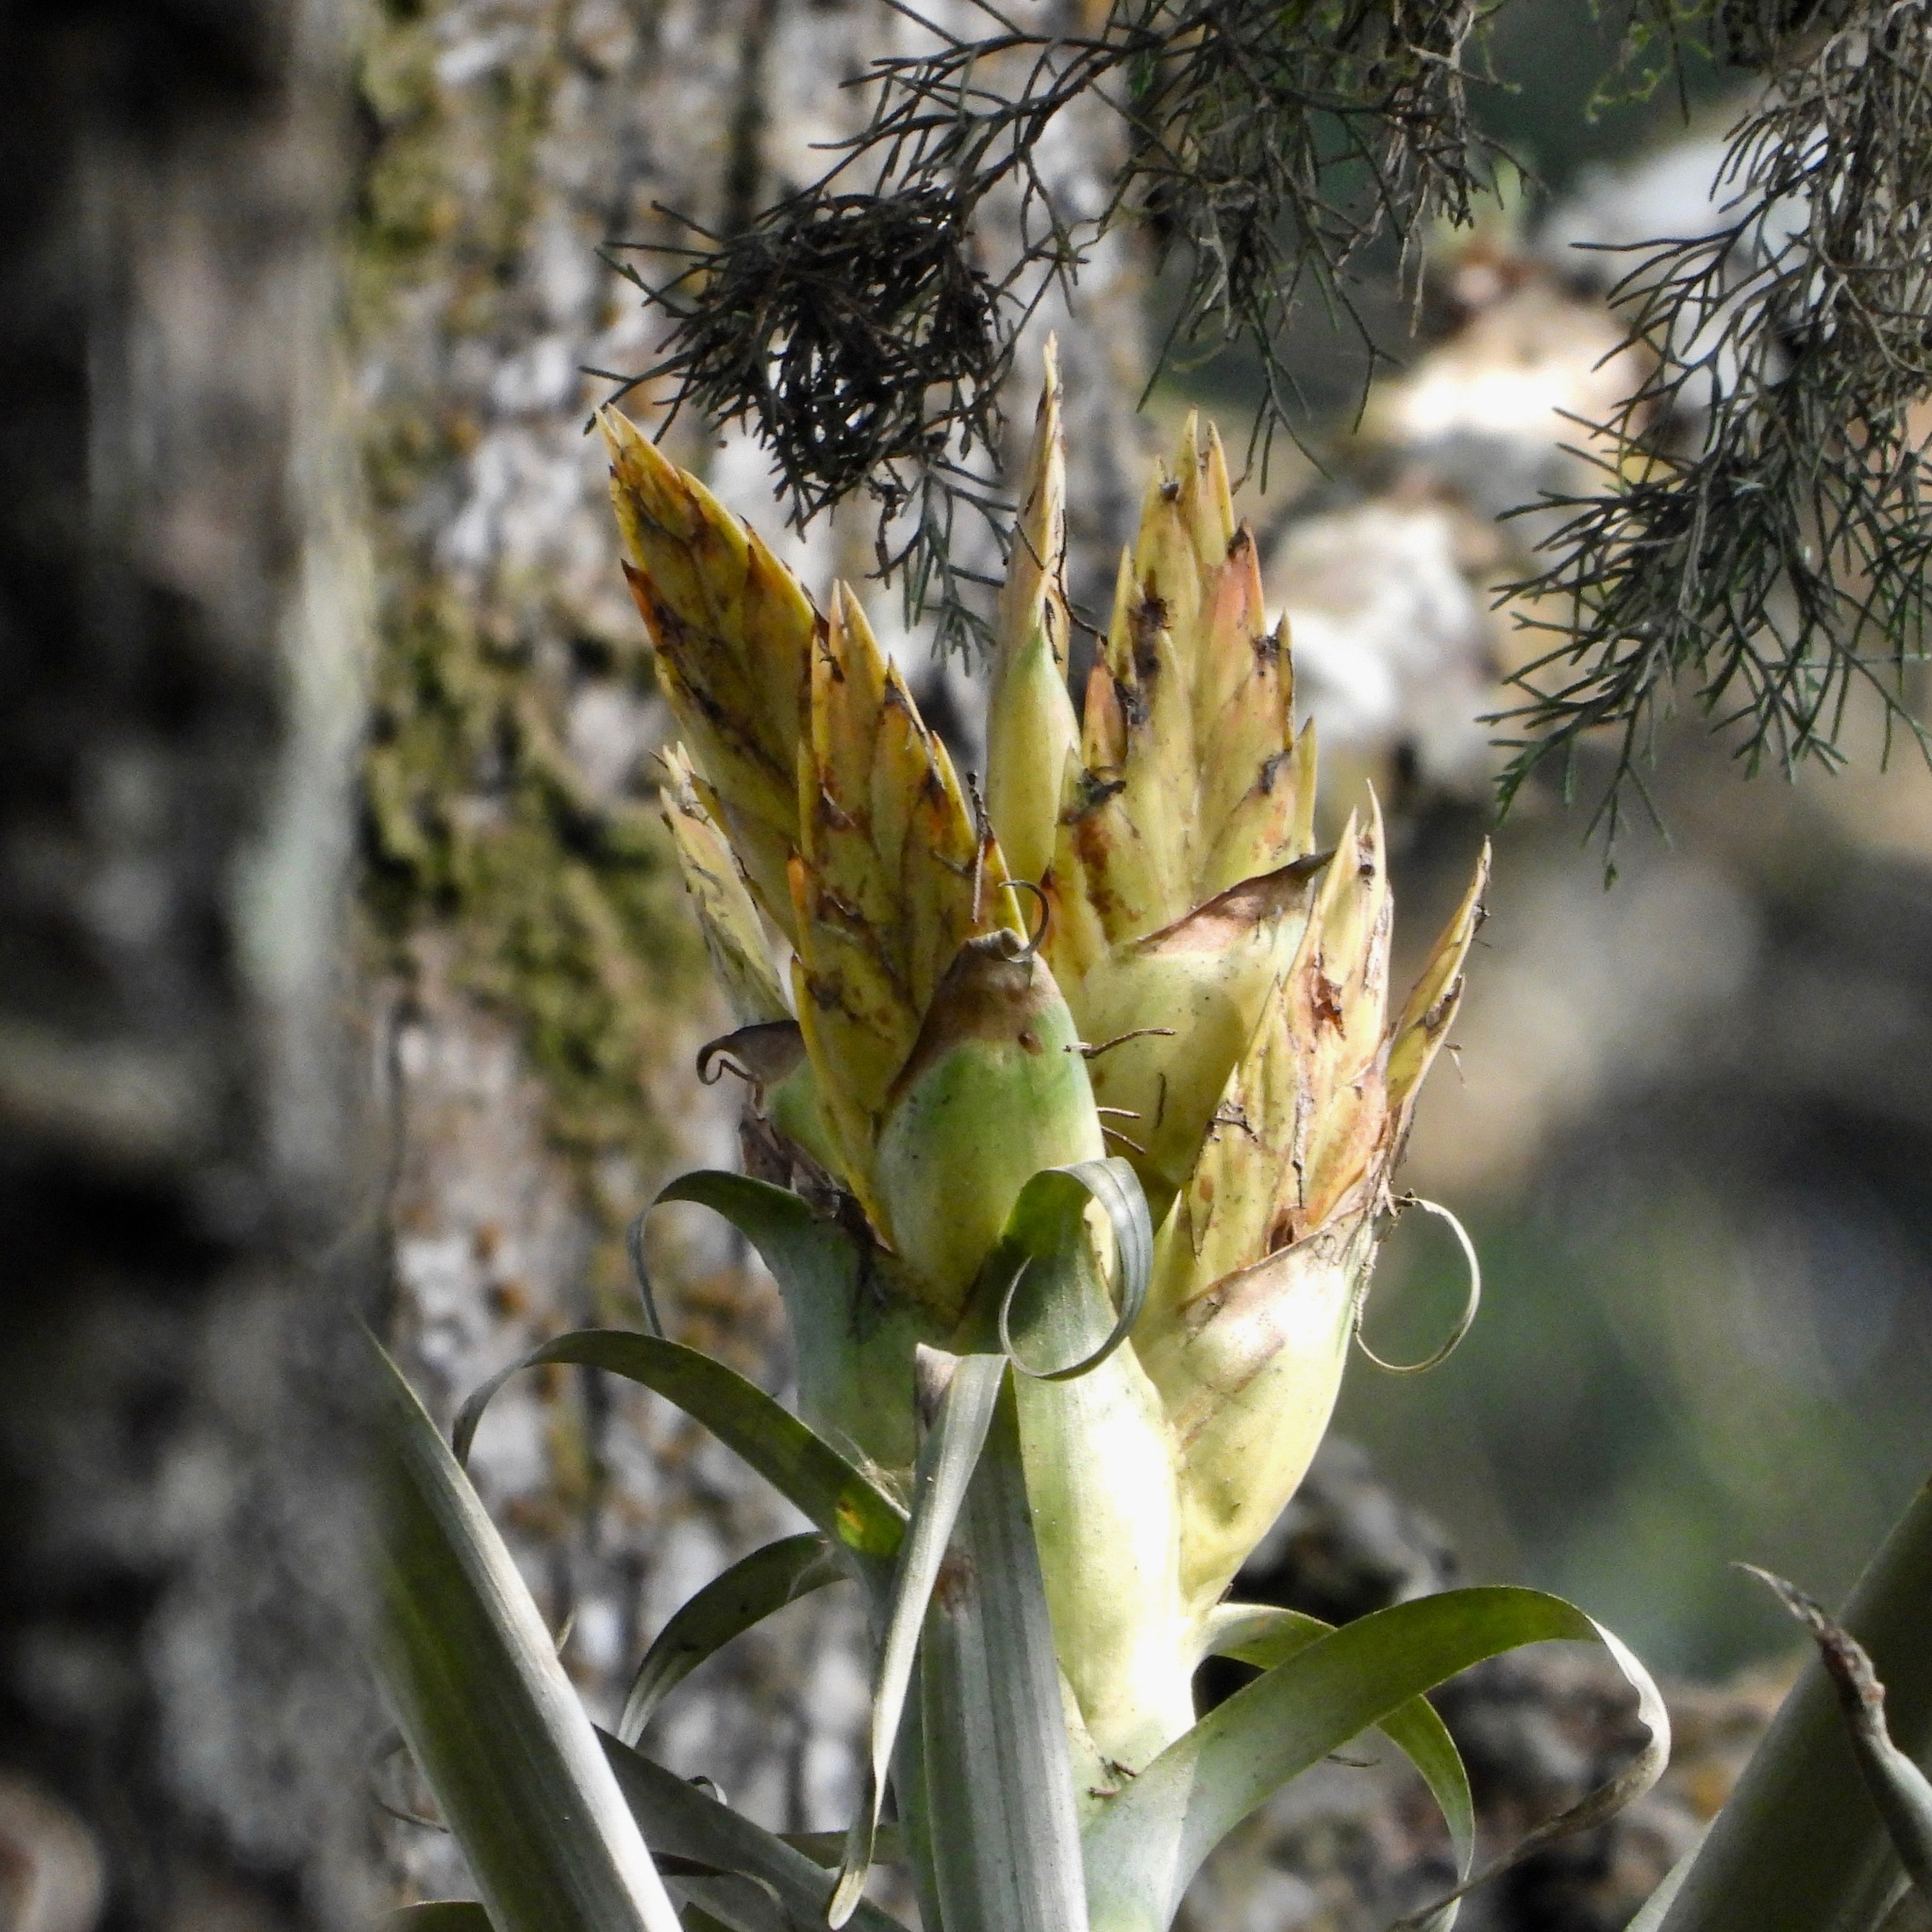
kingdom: Plantae
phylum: Tracheophyta
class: Liliopsida
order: Poales
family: Bromeliaceae
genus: Tillandsia
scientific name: Tillandsia ponderosa
